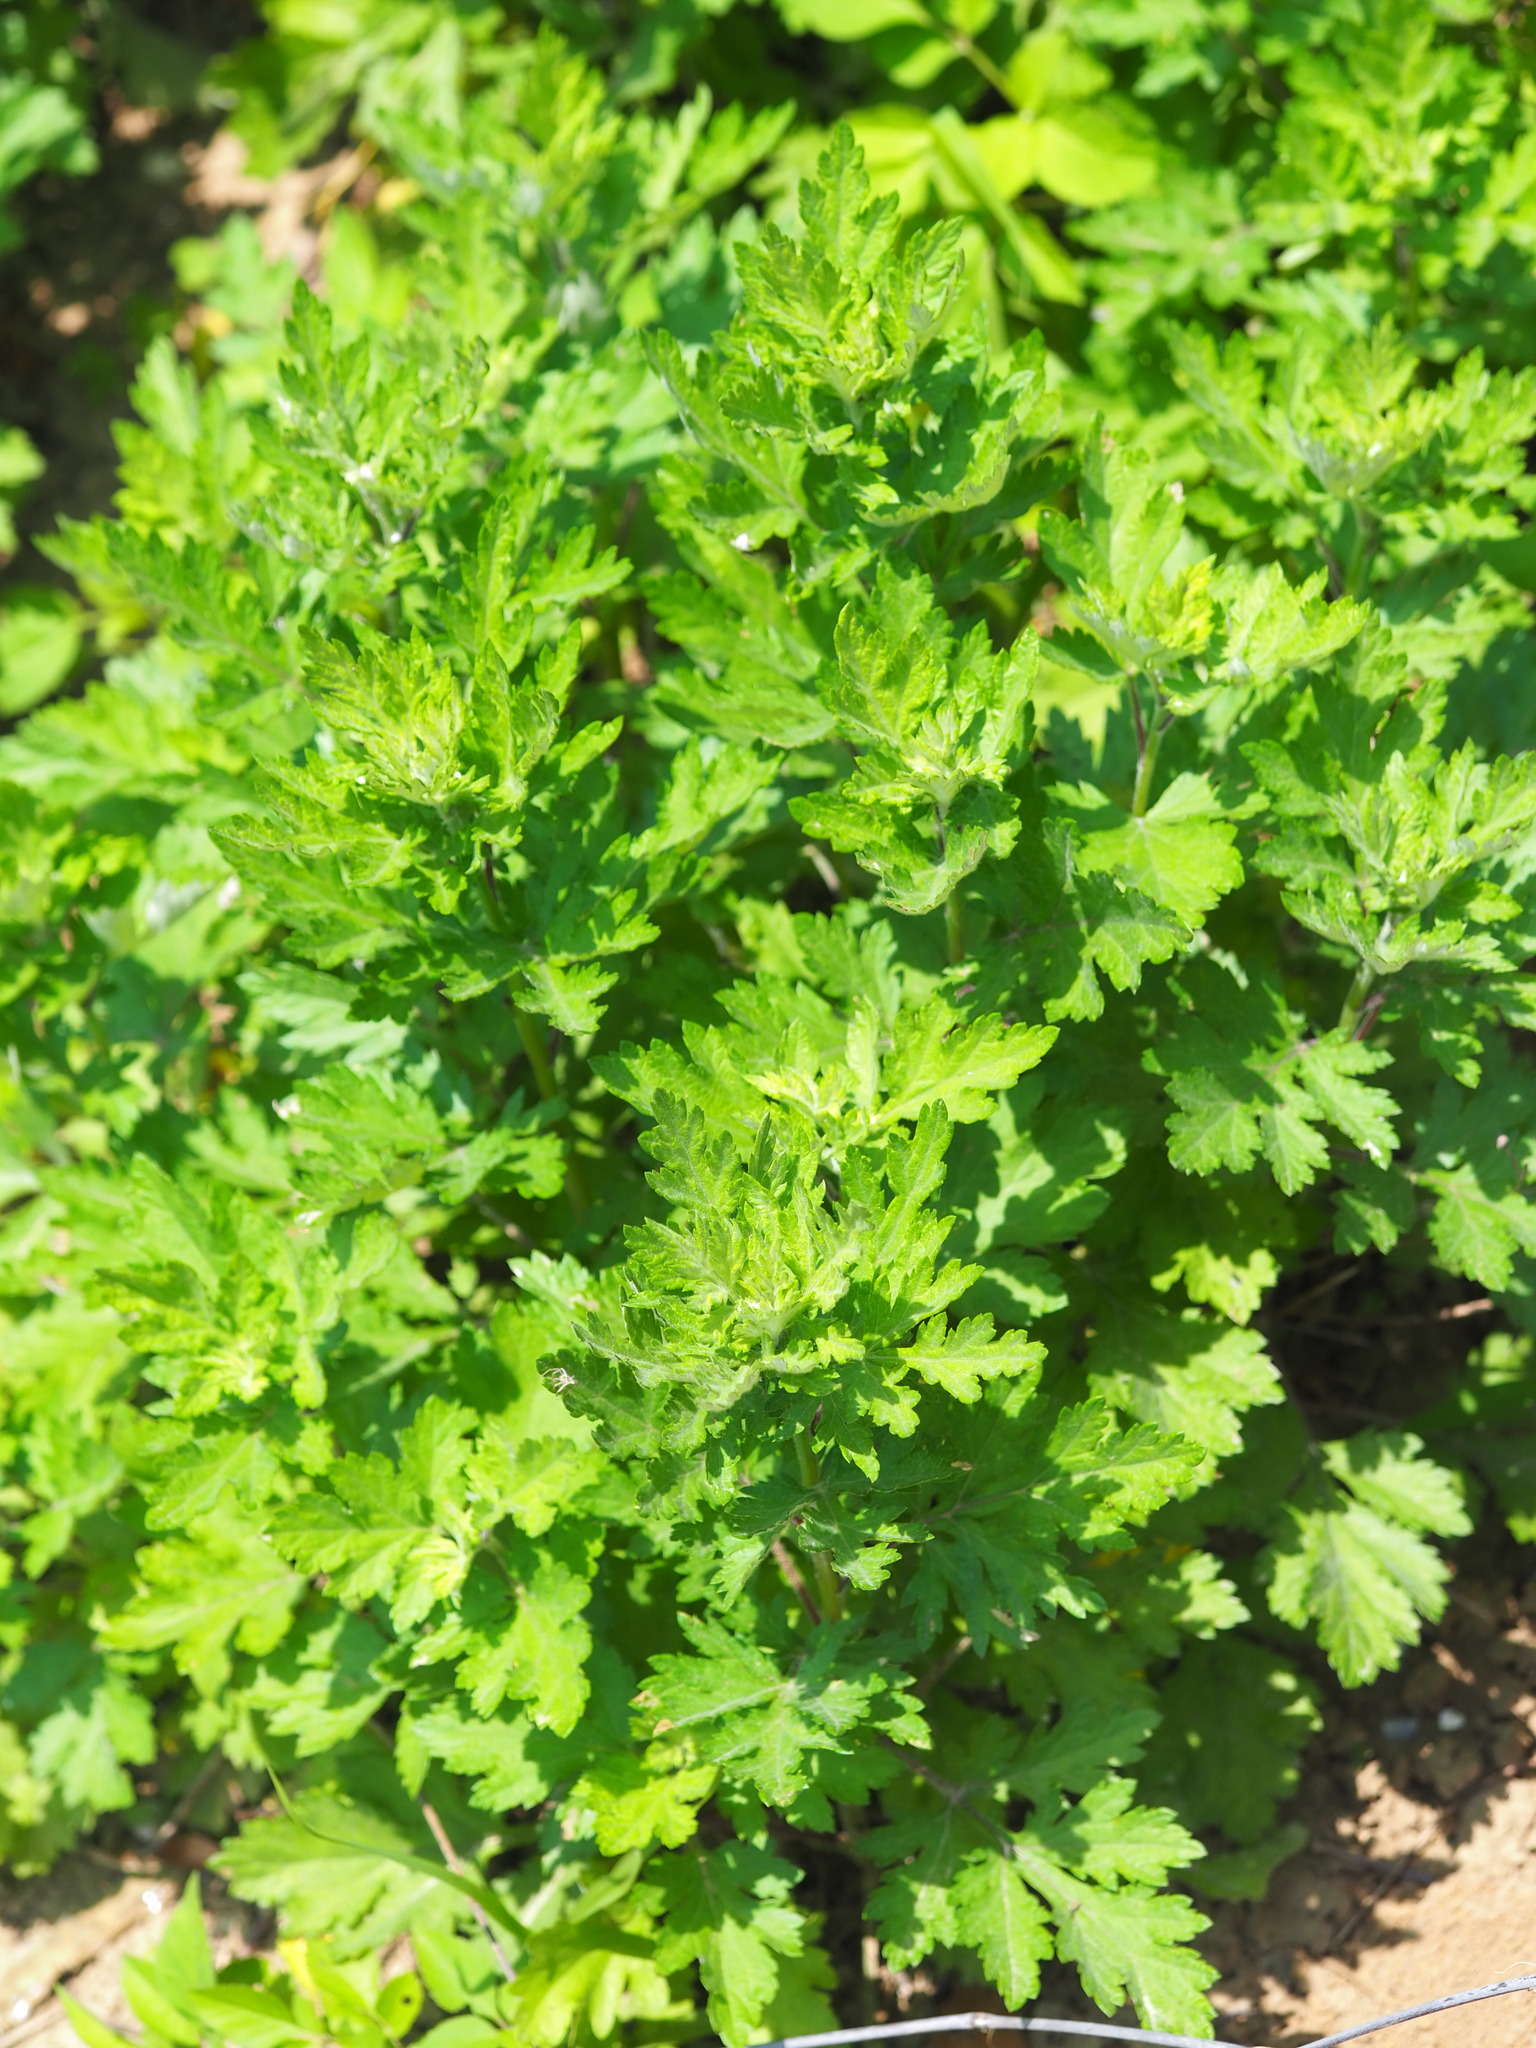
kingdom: Plantae
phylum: Tracheophyta
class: Magnoliopsida
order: Asterales
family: Asteraceae
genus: Artemisia
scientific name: Artemisia indica
